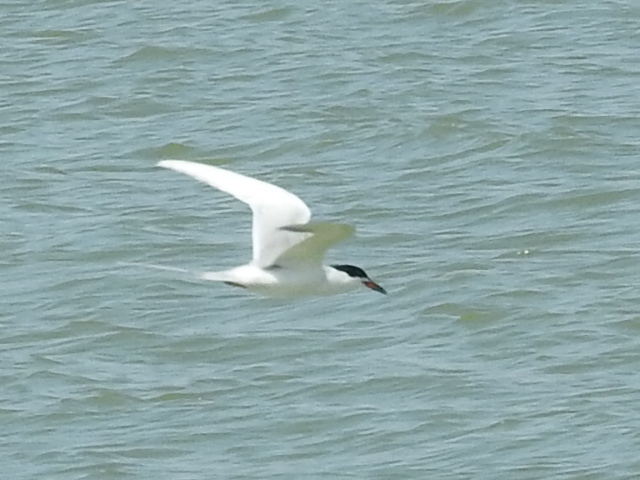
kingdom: Animalia
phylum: Chordata
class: Aves
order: Charadriiformes
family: Laridae
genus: Sterna
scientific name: Sterna forsteri
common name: Forster's tern
